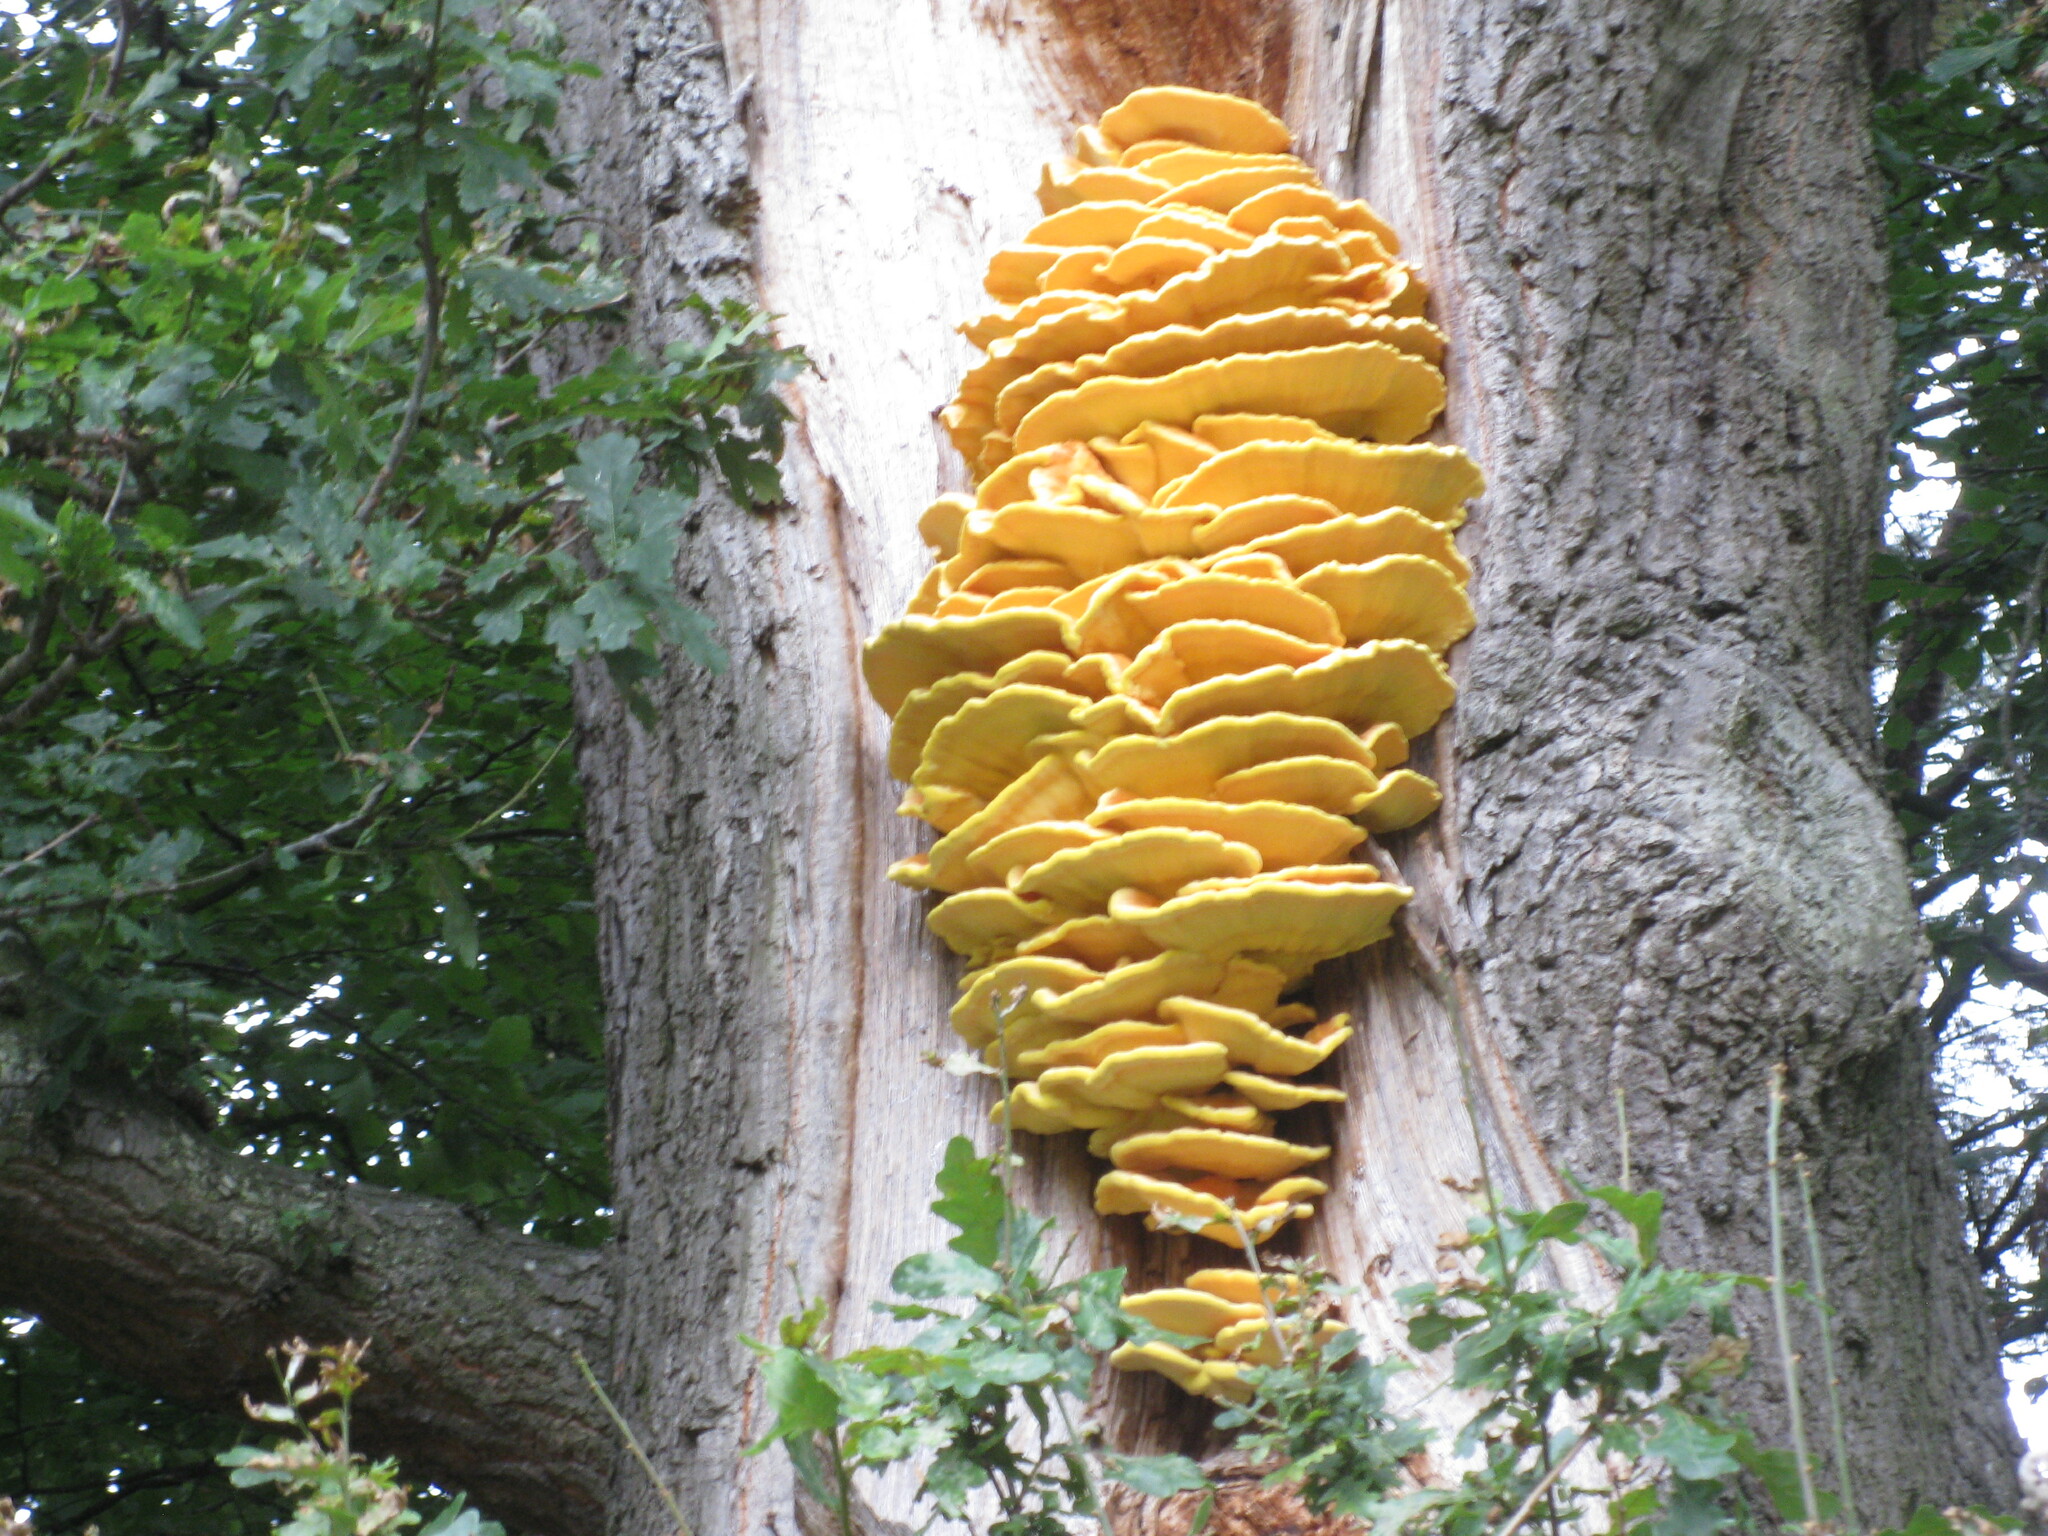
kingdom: Fungi
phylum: Basidiomycota
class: Agaricomycetes
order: Polyporales
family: Laetiporaceae
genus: Laetiporus
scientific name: Laetiporus sulphureus
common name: Chicken of the woods
